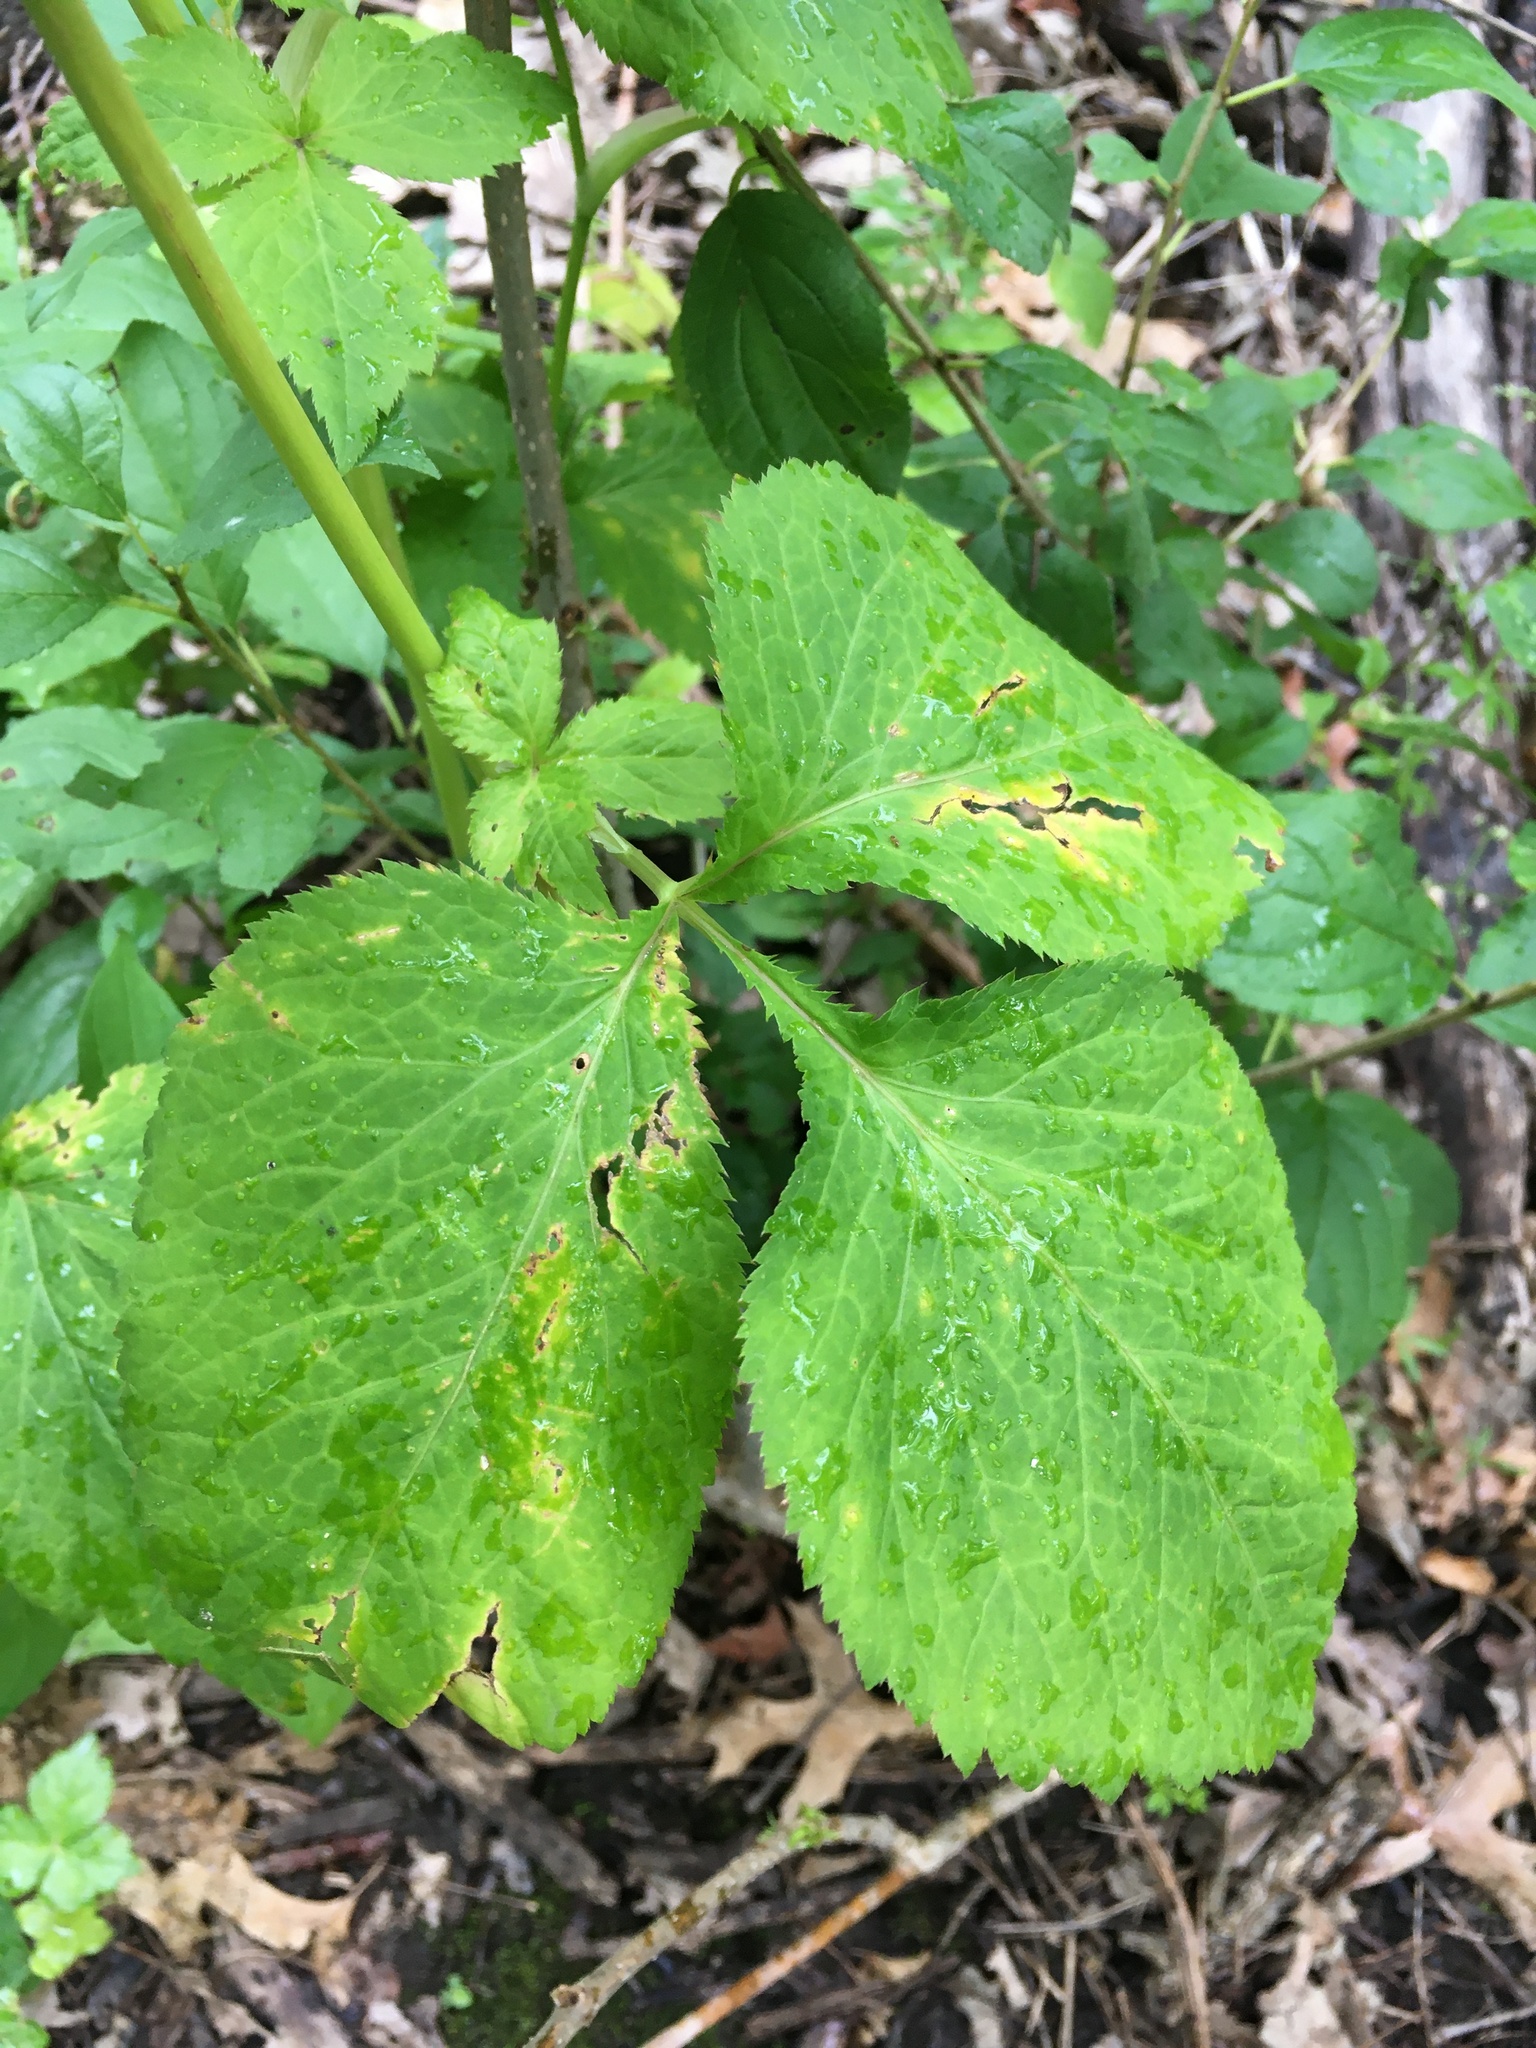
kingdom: Plantae
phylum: Tracheophyta
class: Magnoliopsida
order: Apiales
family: Apiaceae
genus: Cryptotaenia
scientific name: Cryptotaenia canadensis
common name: Honewort
